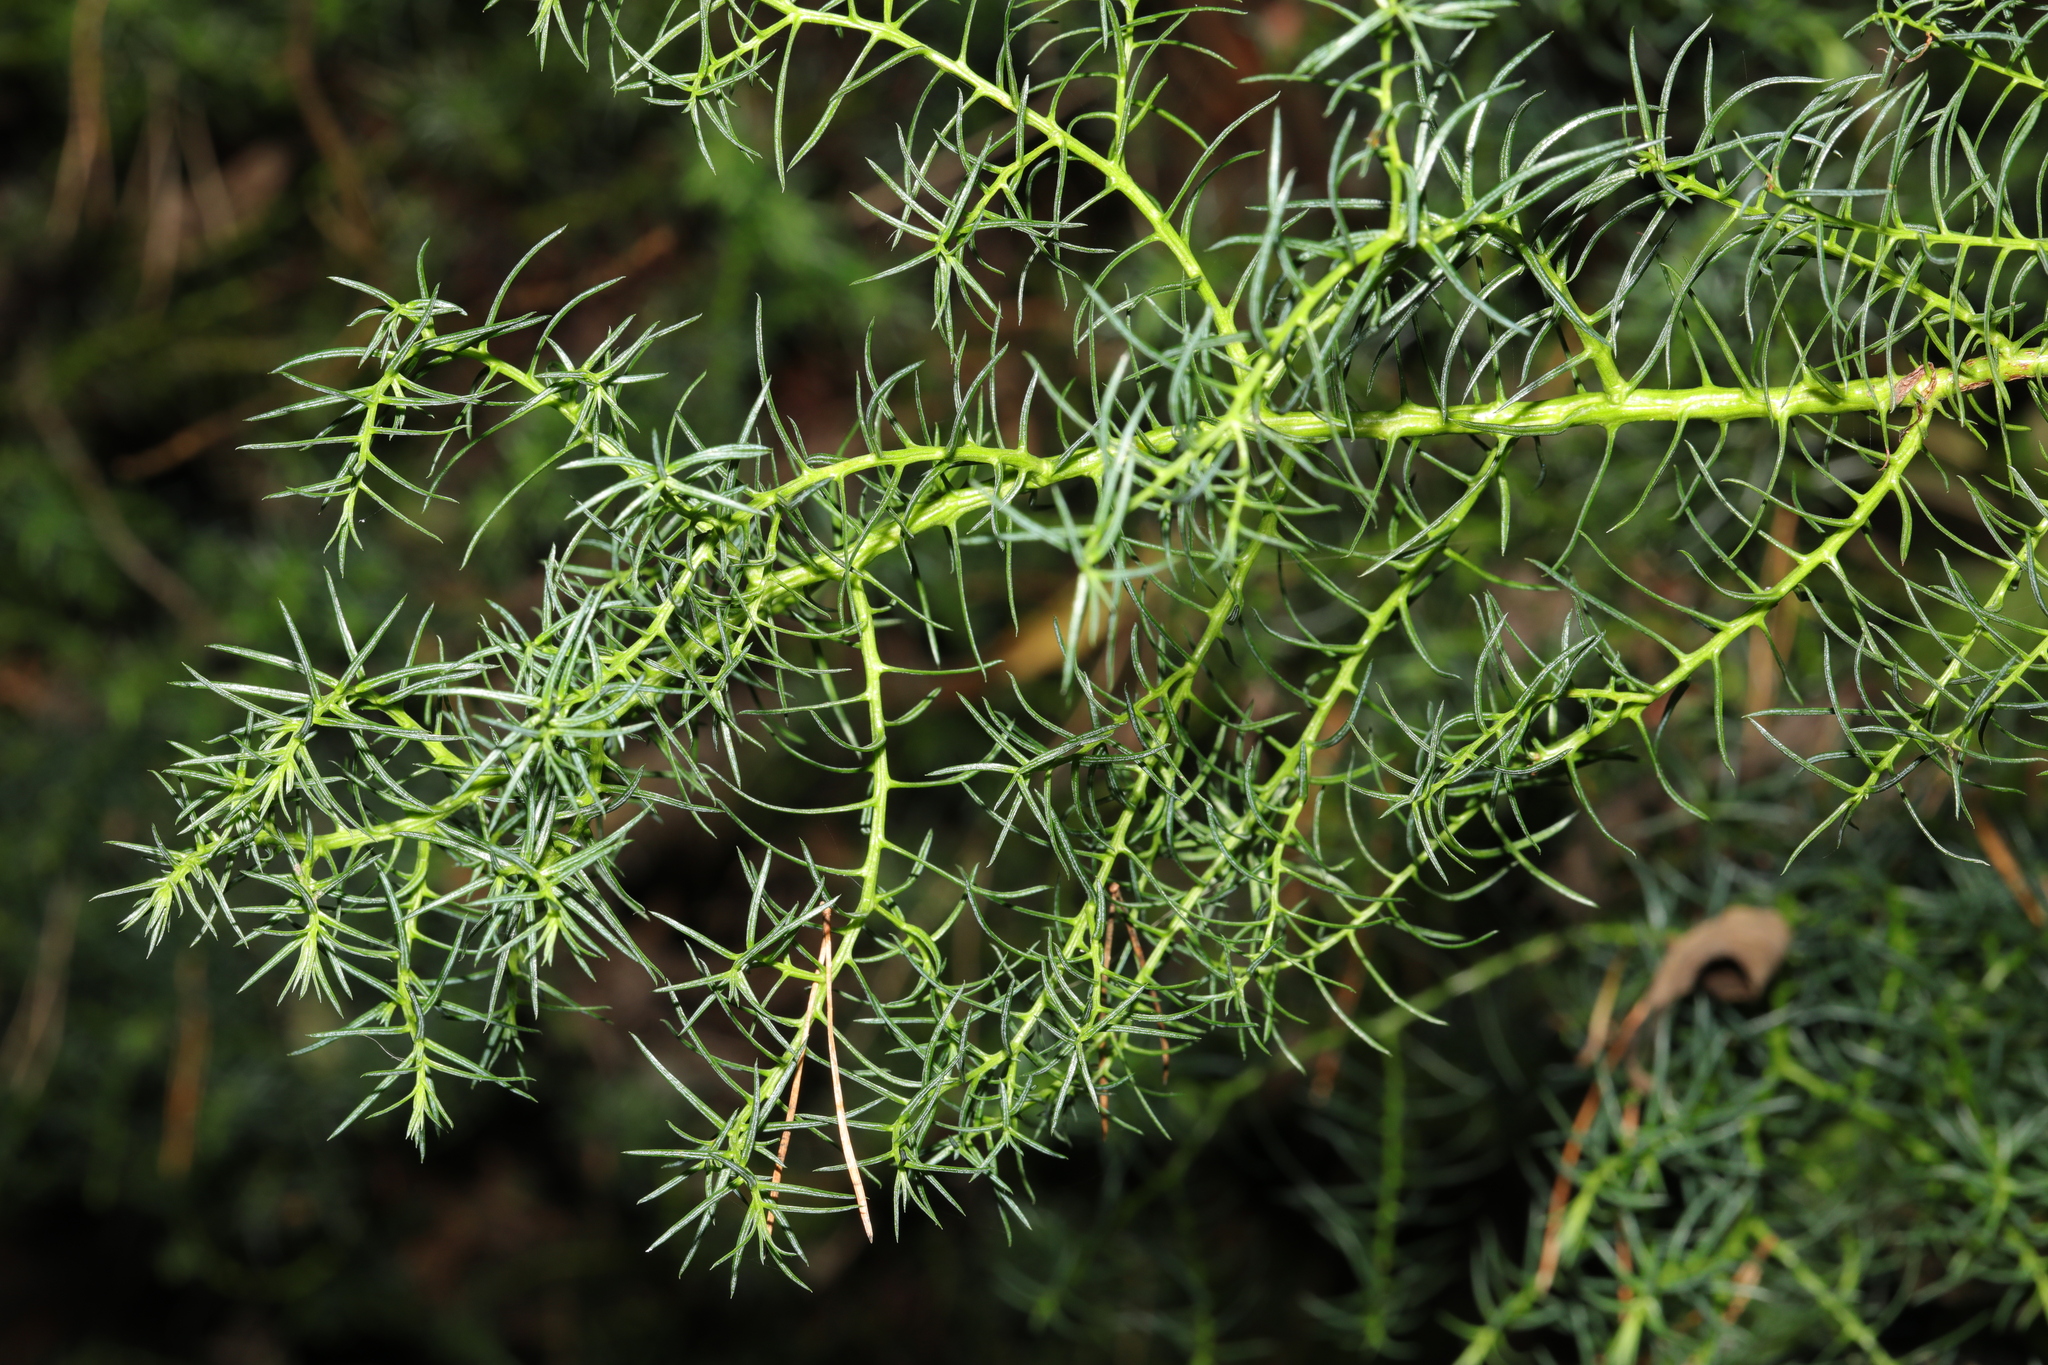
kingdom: Plantae
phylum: Tracheophyta
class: Magnoliopsida
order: Fabales
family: Fabaceae
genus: Ulex
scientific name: Ulex europaeus
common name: Common gorse
